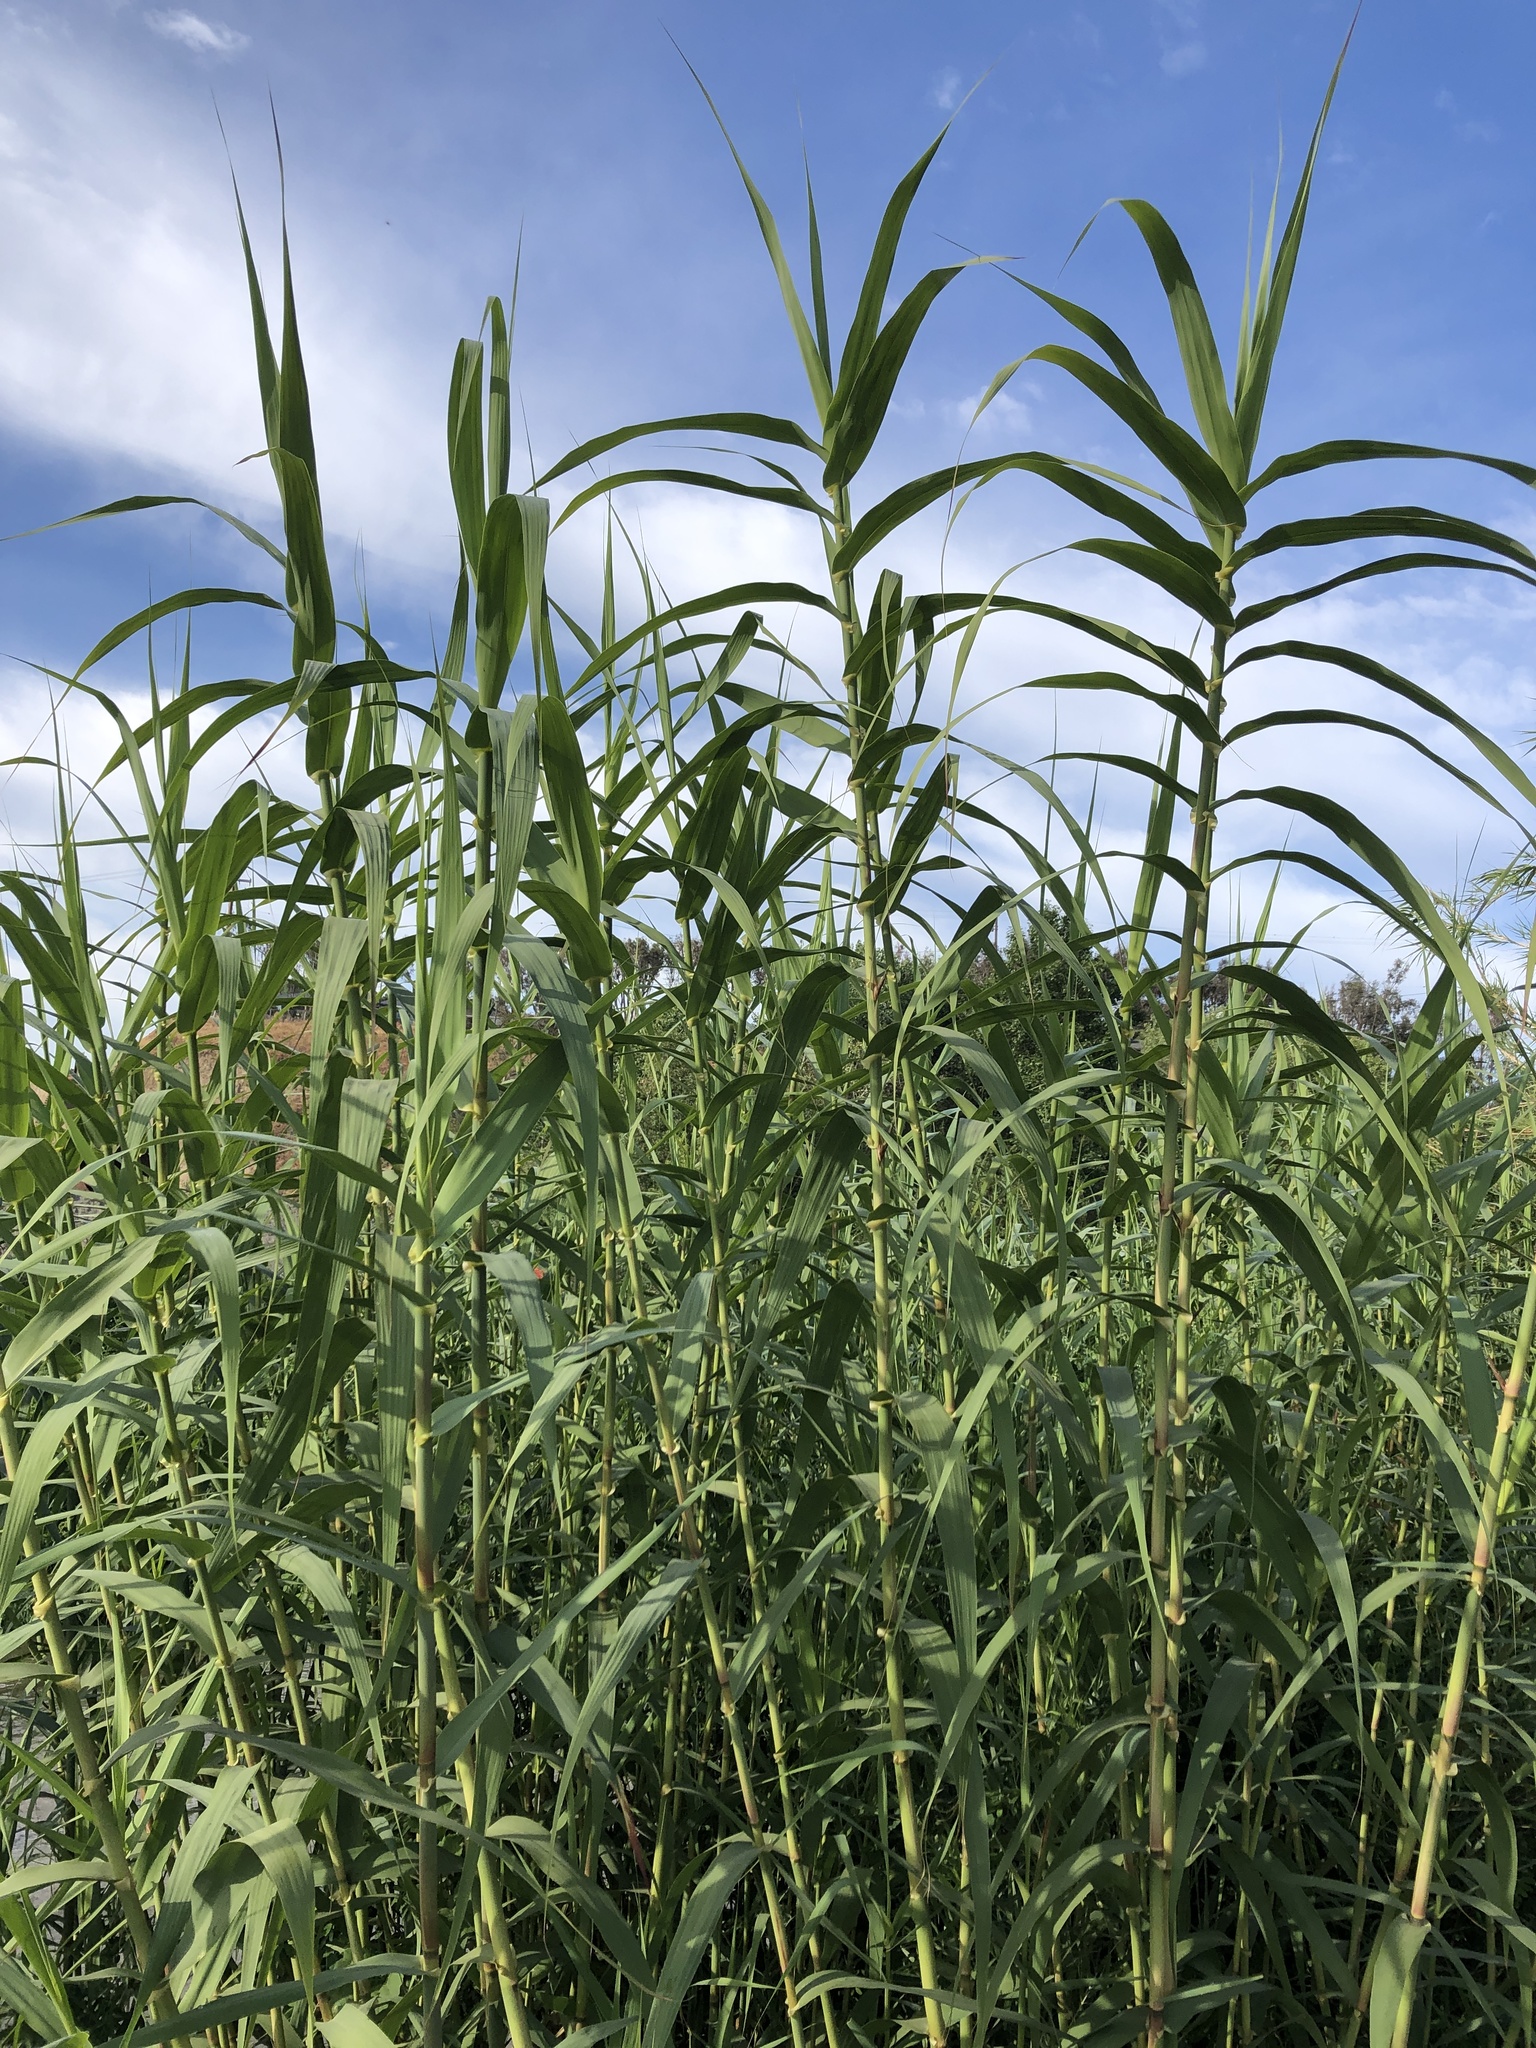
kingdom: Plantae
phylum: Tracheophyta
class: Liliopsida
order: Poales
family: Poaceae
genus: Arundo
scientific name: Arundo donax
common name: Giant reed
